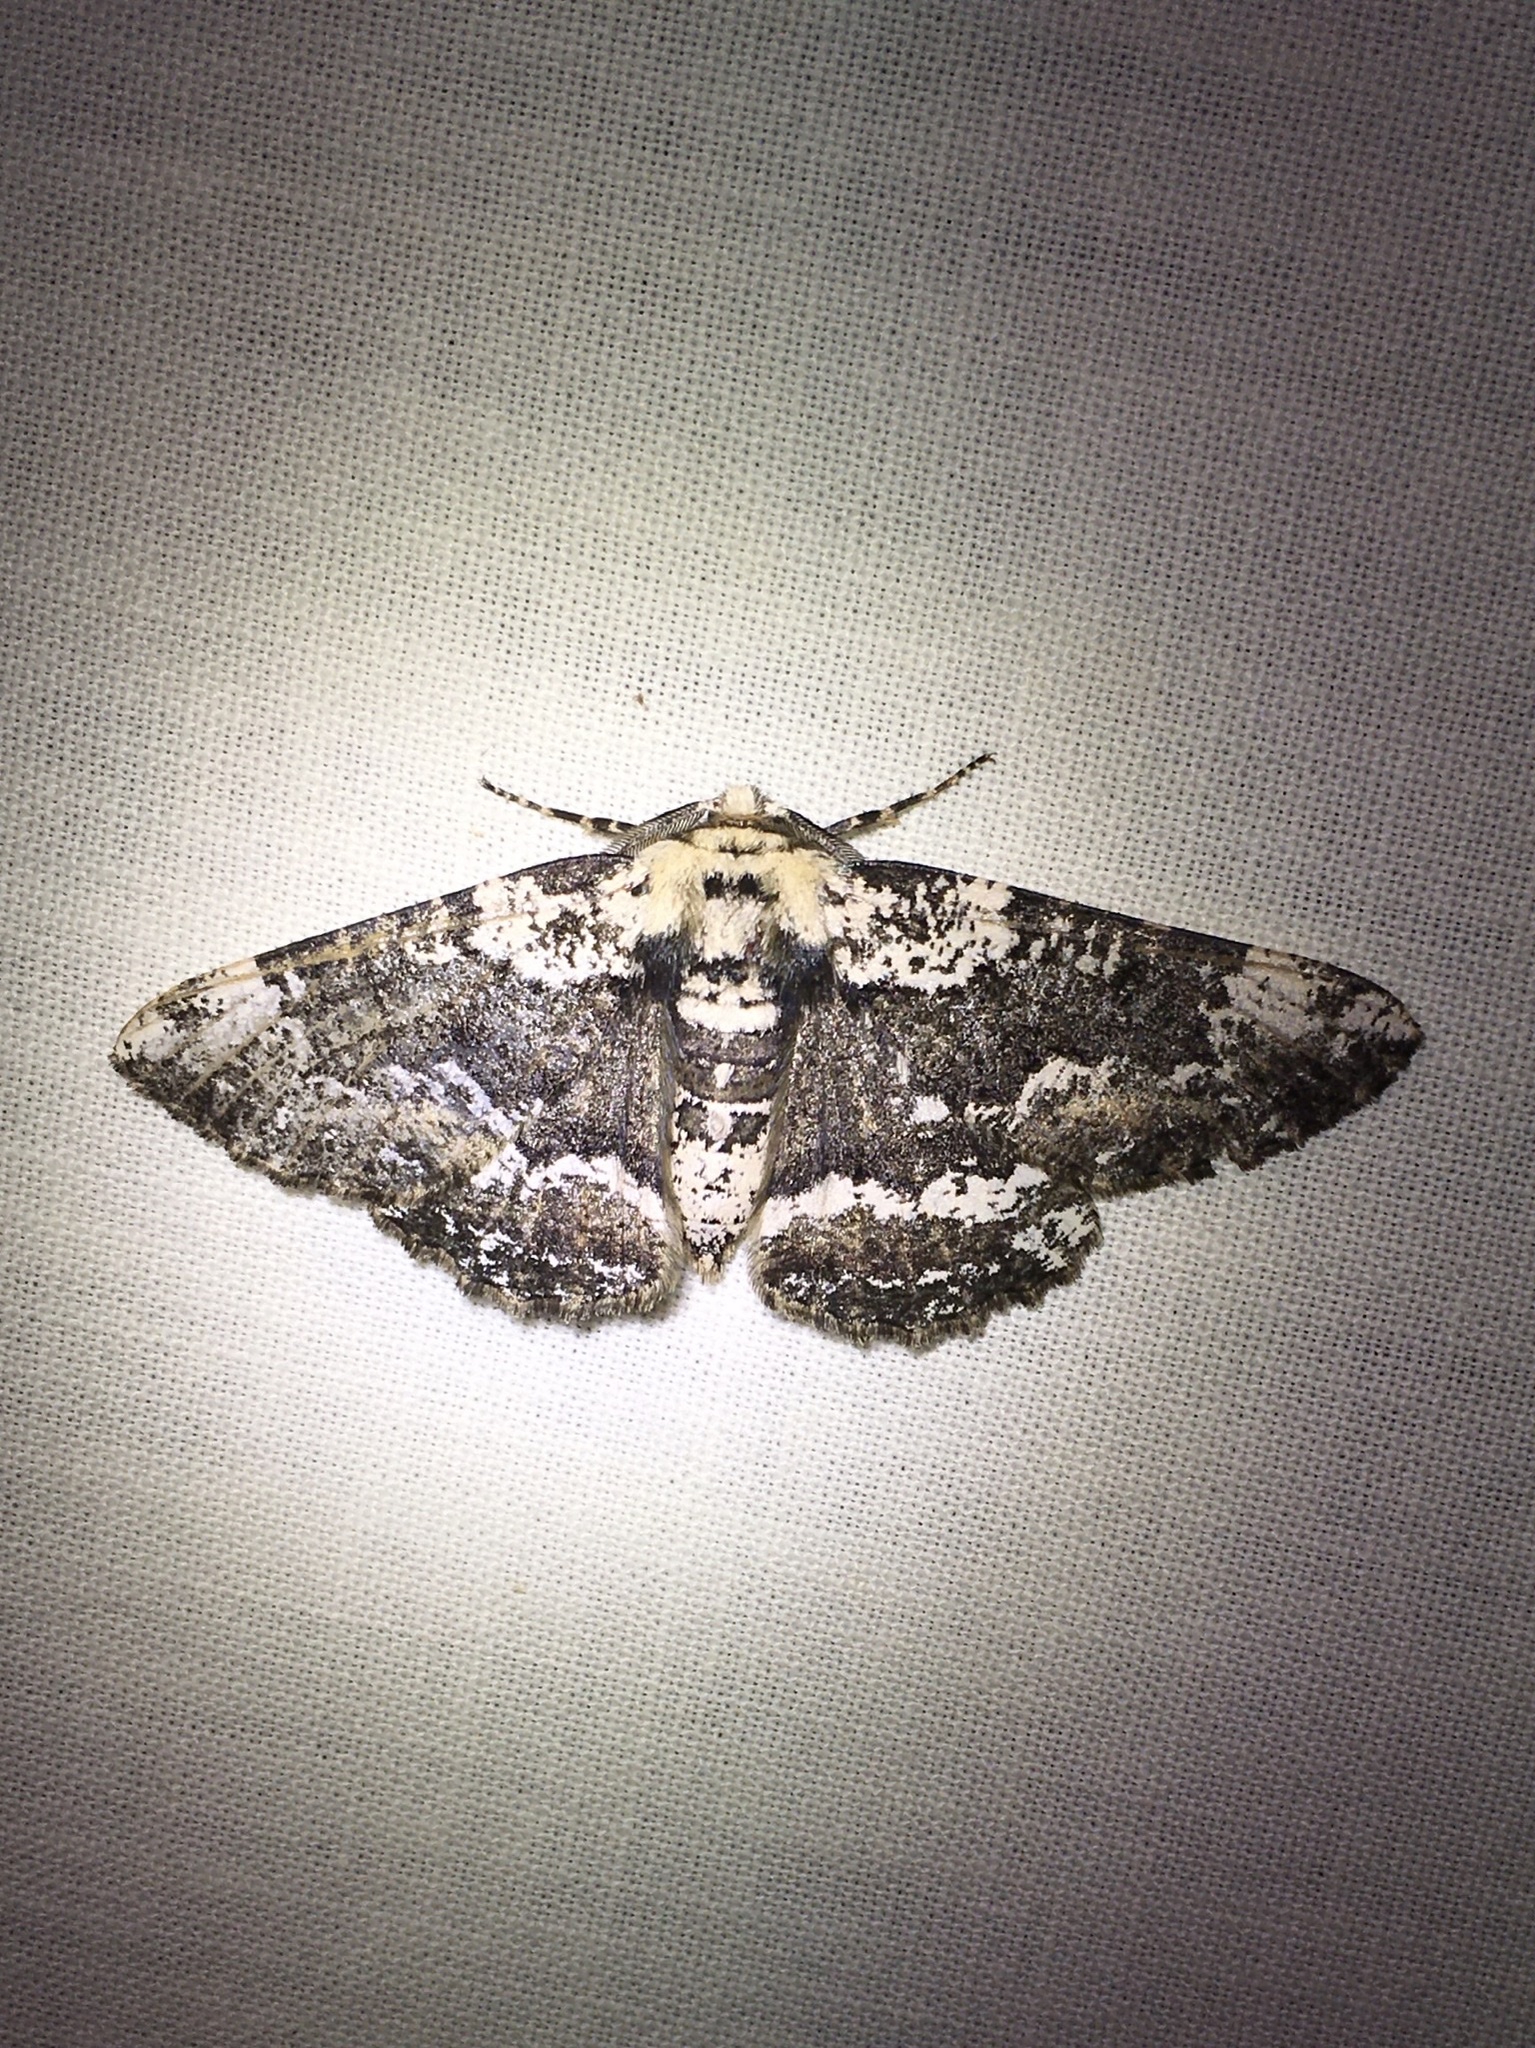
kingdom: Animalia
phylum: Arthropoda
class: Insecta
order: Lepidoptera
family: Geometridae
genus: Phaeoura
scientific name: Phaeoura quernaria
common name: Oak beauty
